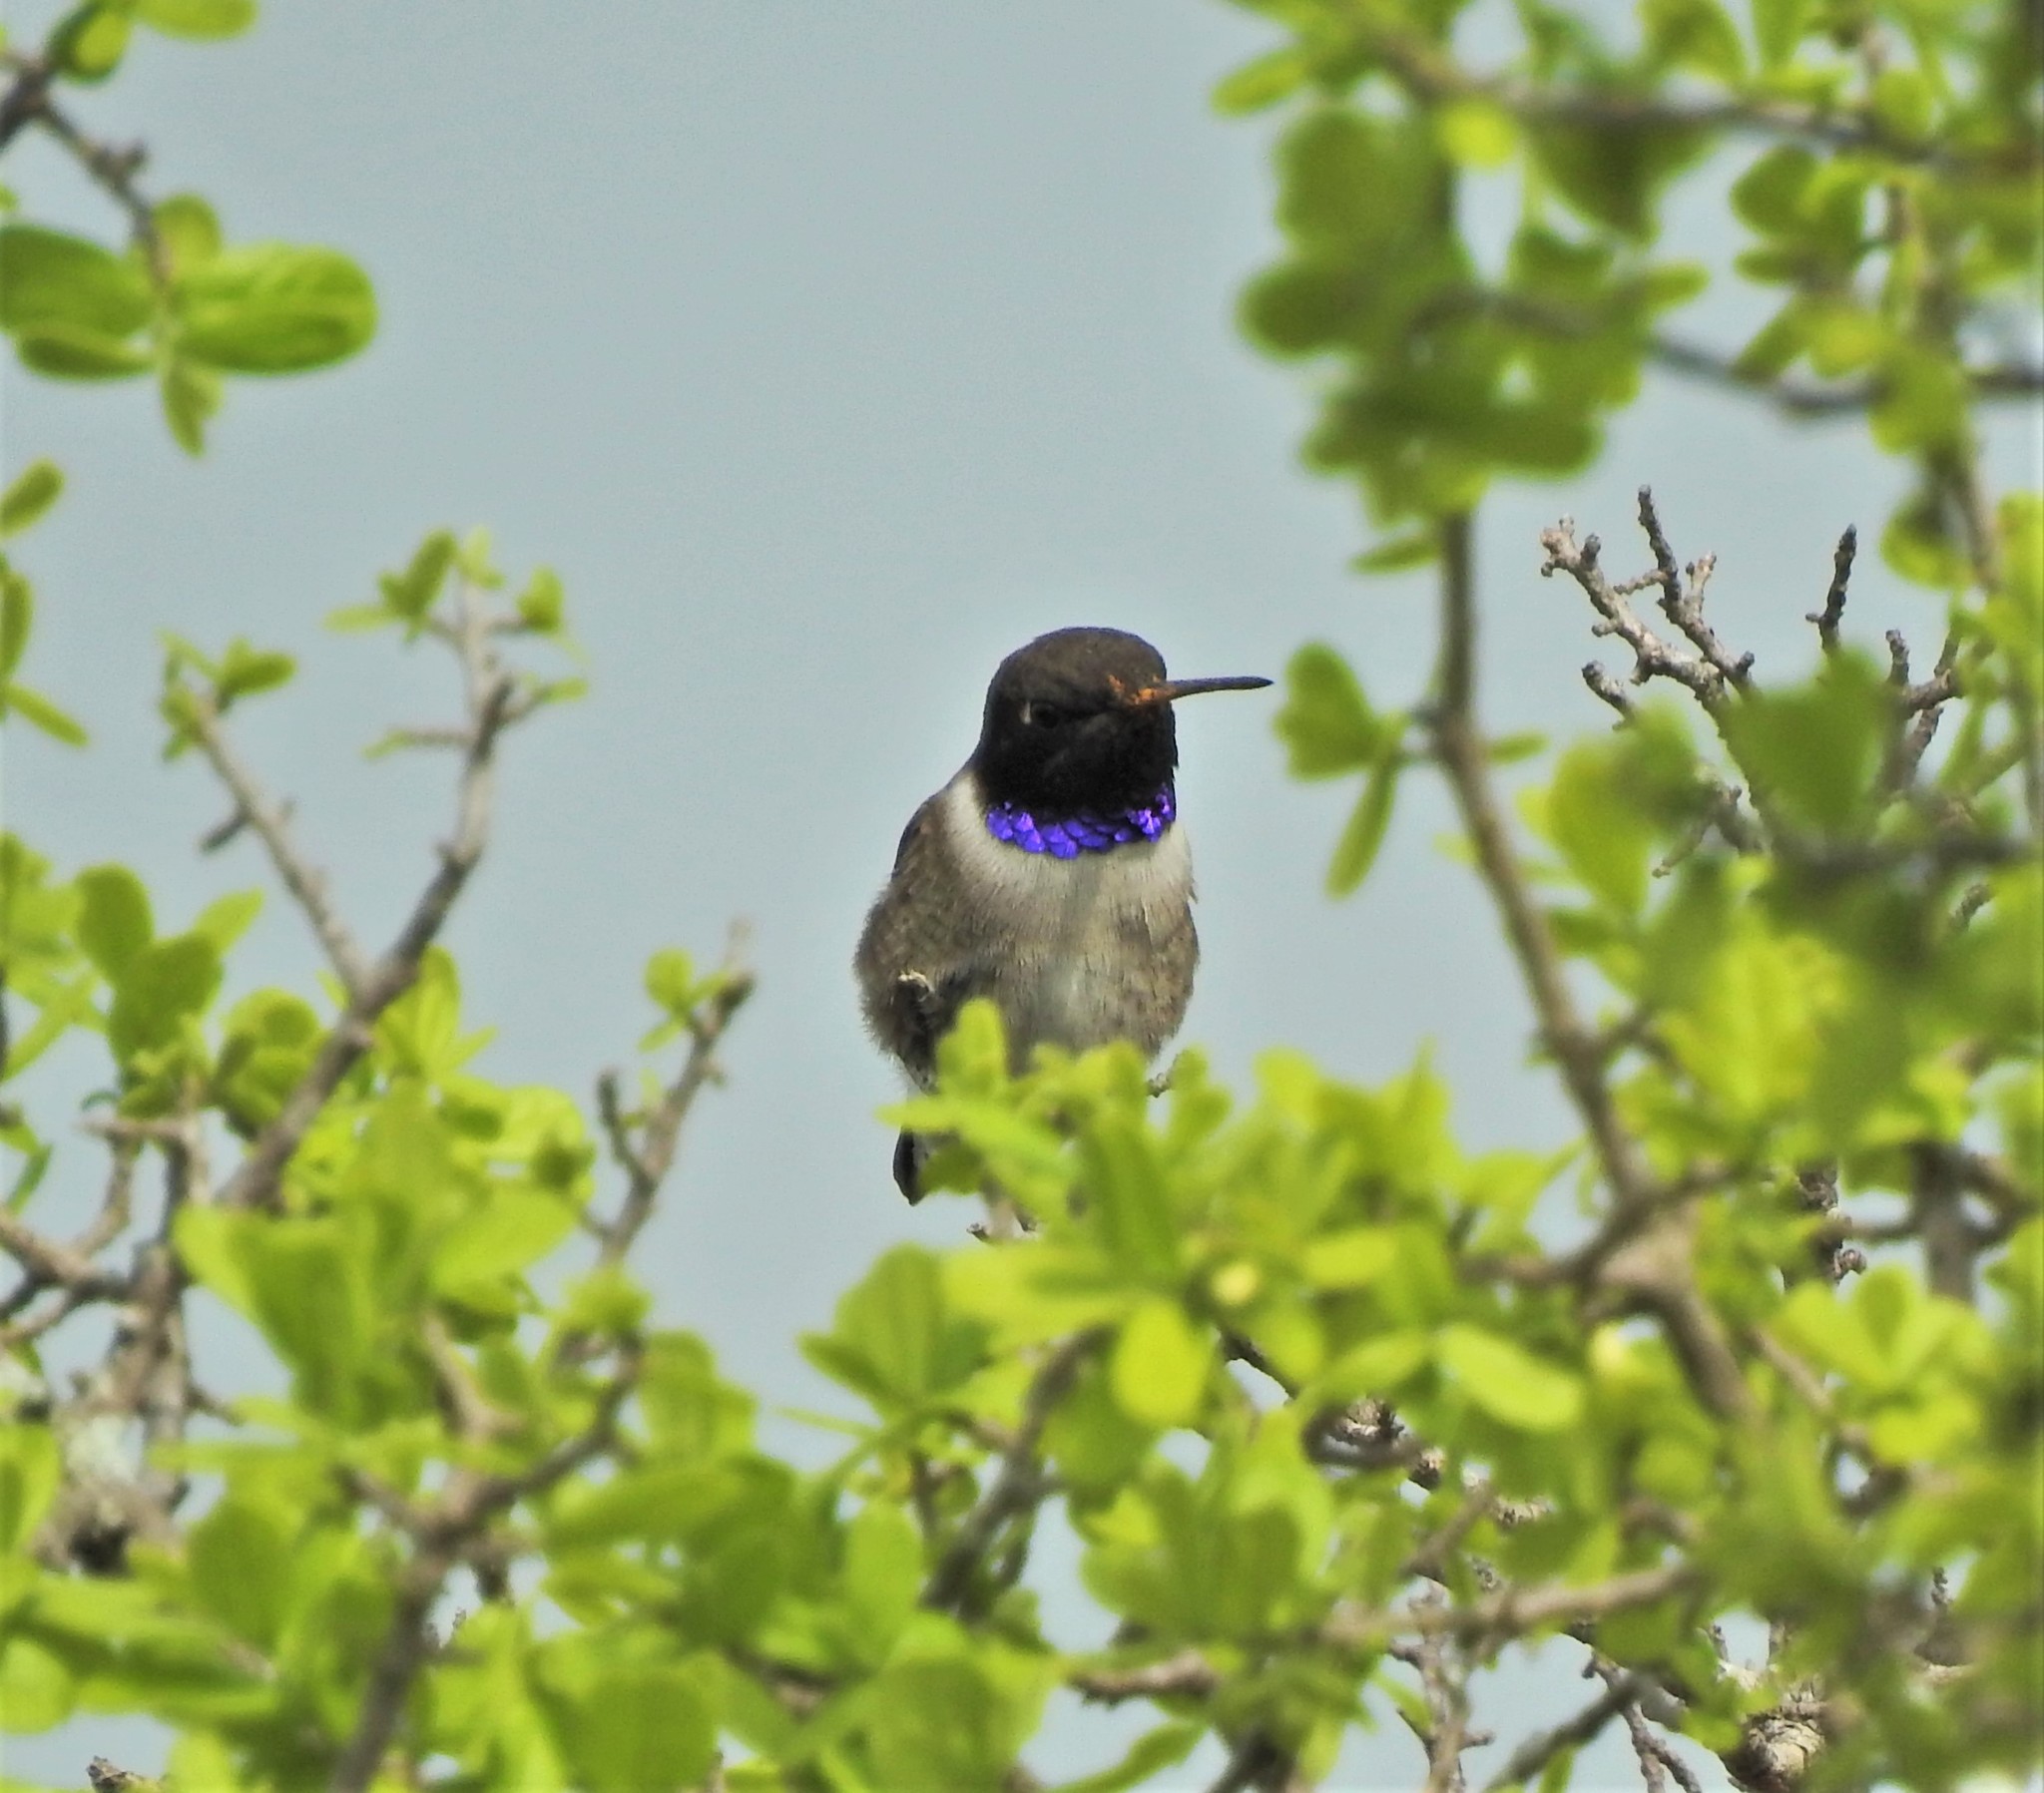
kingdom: Animalia
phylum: Chordata
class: Aves
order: Apodiformes
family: Trochilidae
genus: Archilochus
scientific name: Archilochus alexandri
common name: Black-chinned hummingbird
